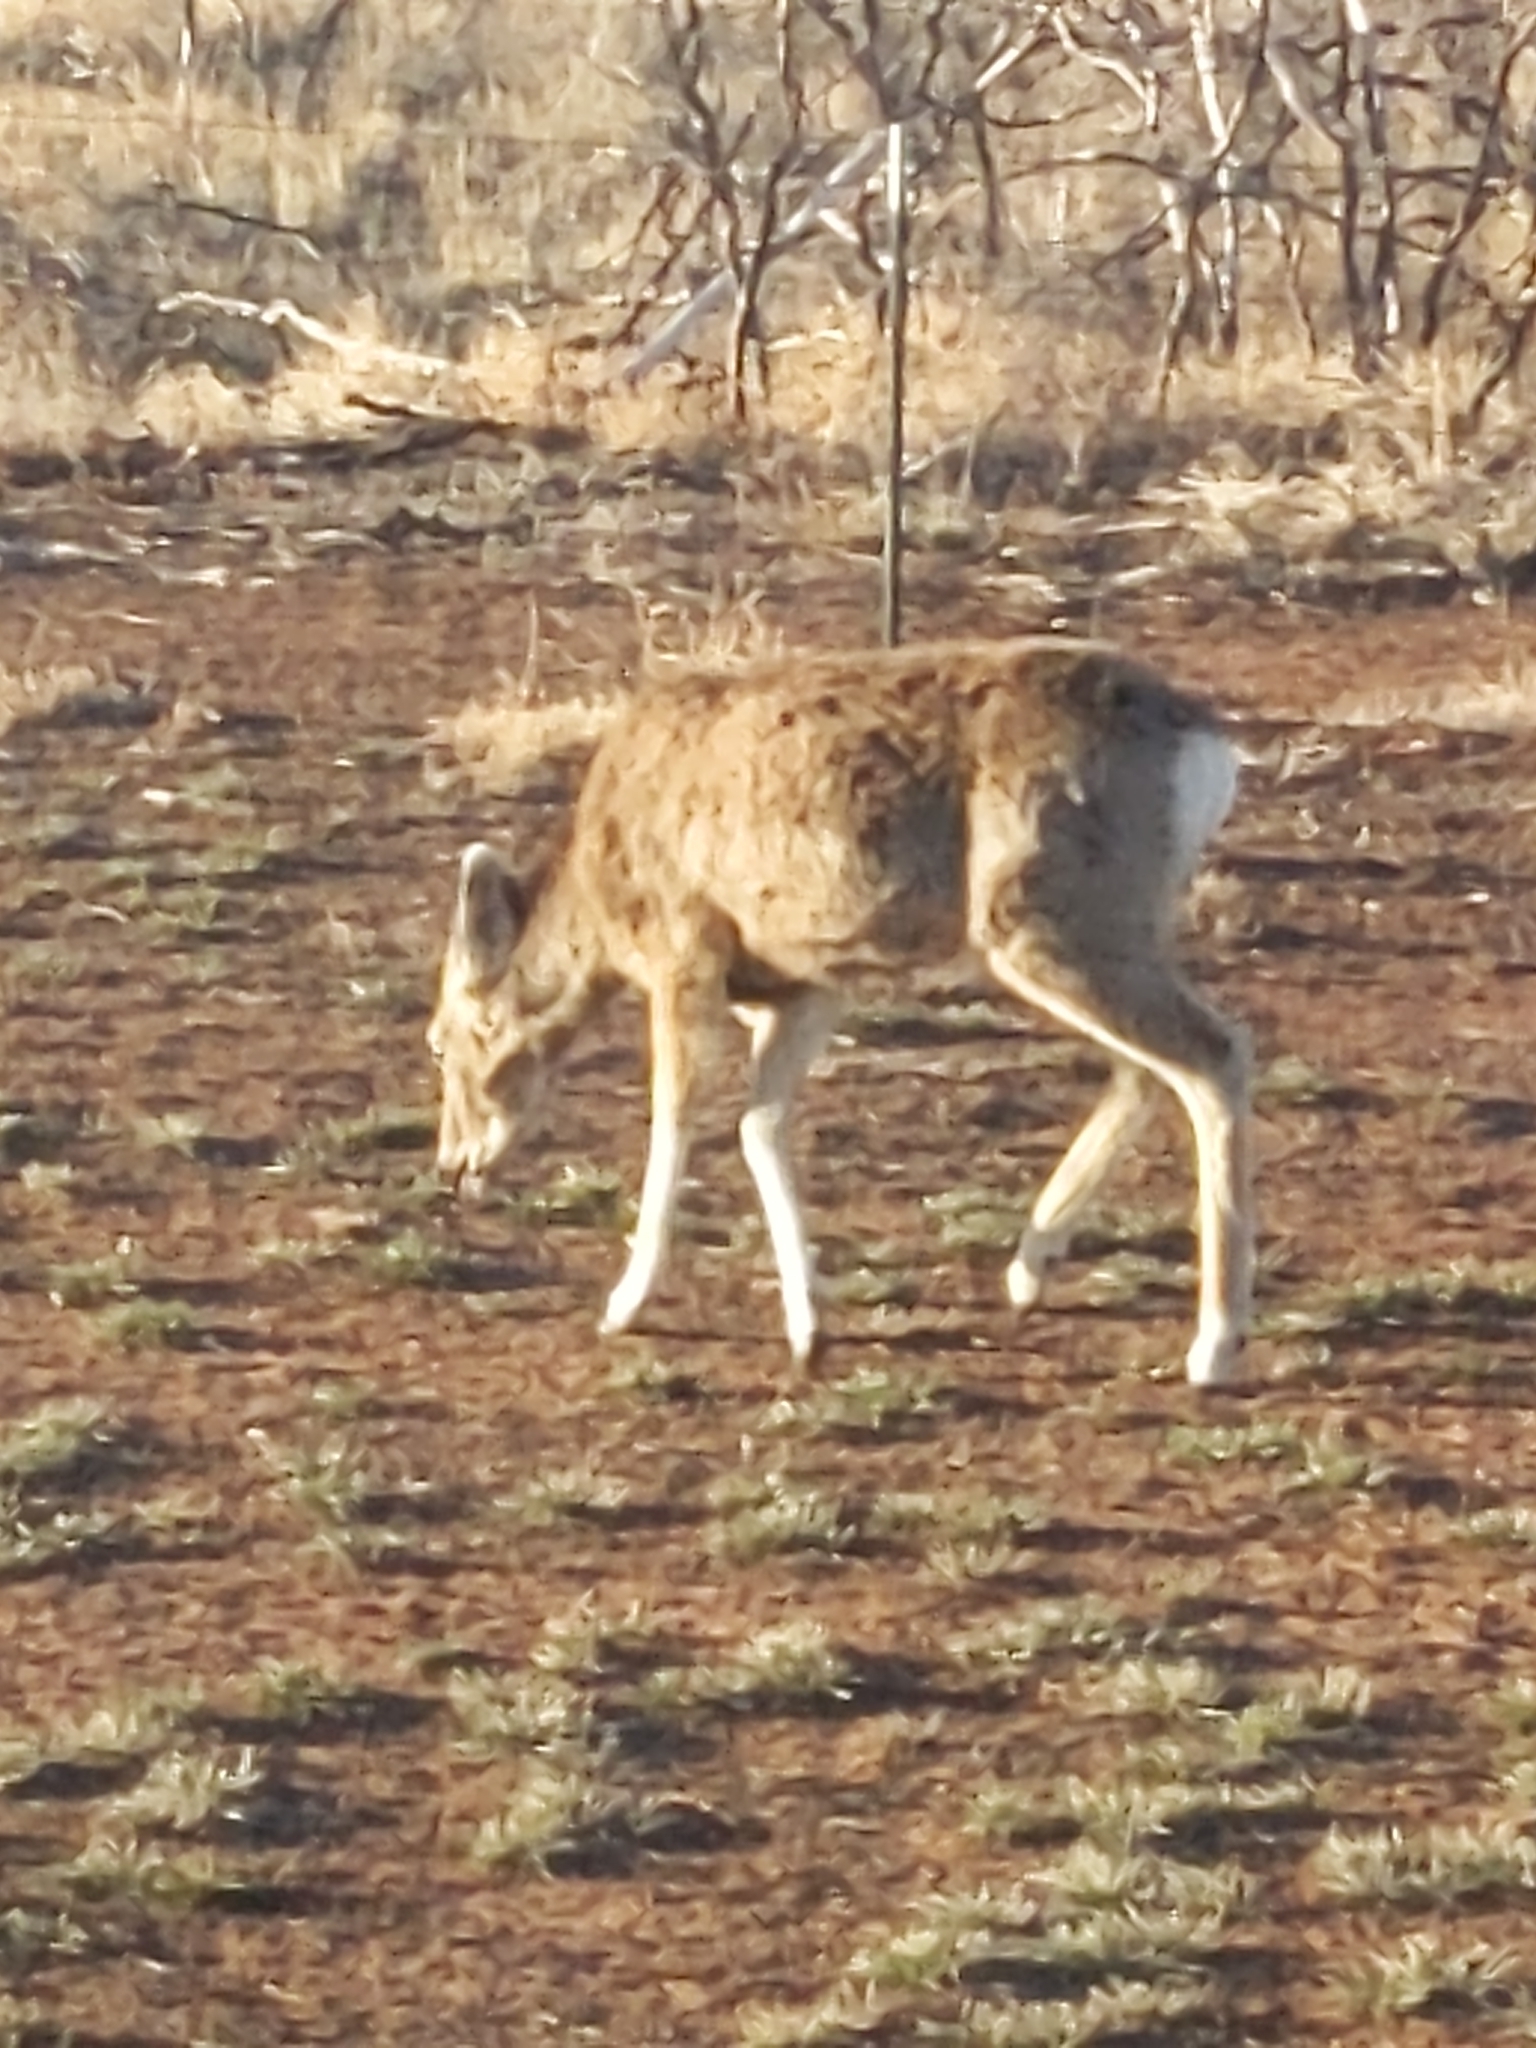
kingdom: Animalia
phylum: Chordata
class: Mammalia
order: Artiodactyla
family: Cervidae
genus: Odocoileus
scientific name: Odocoileus hemionus
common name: Mule deer
